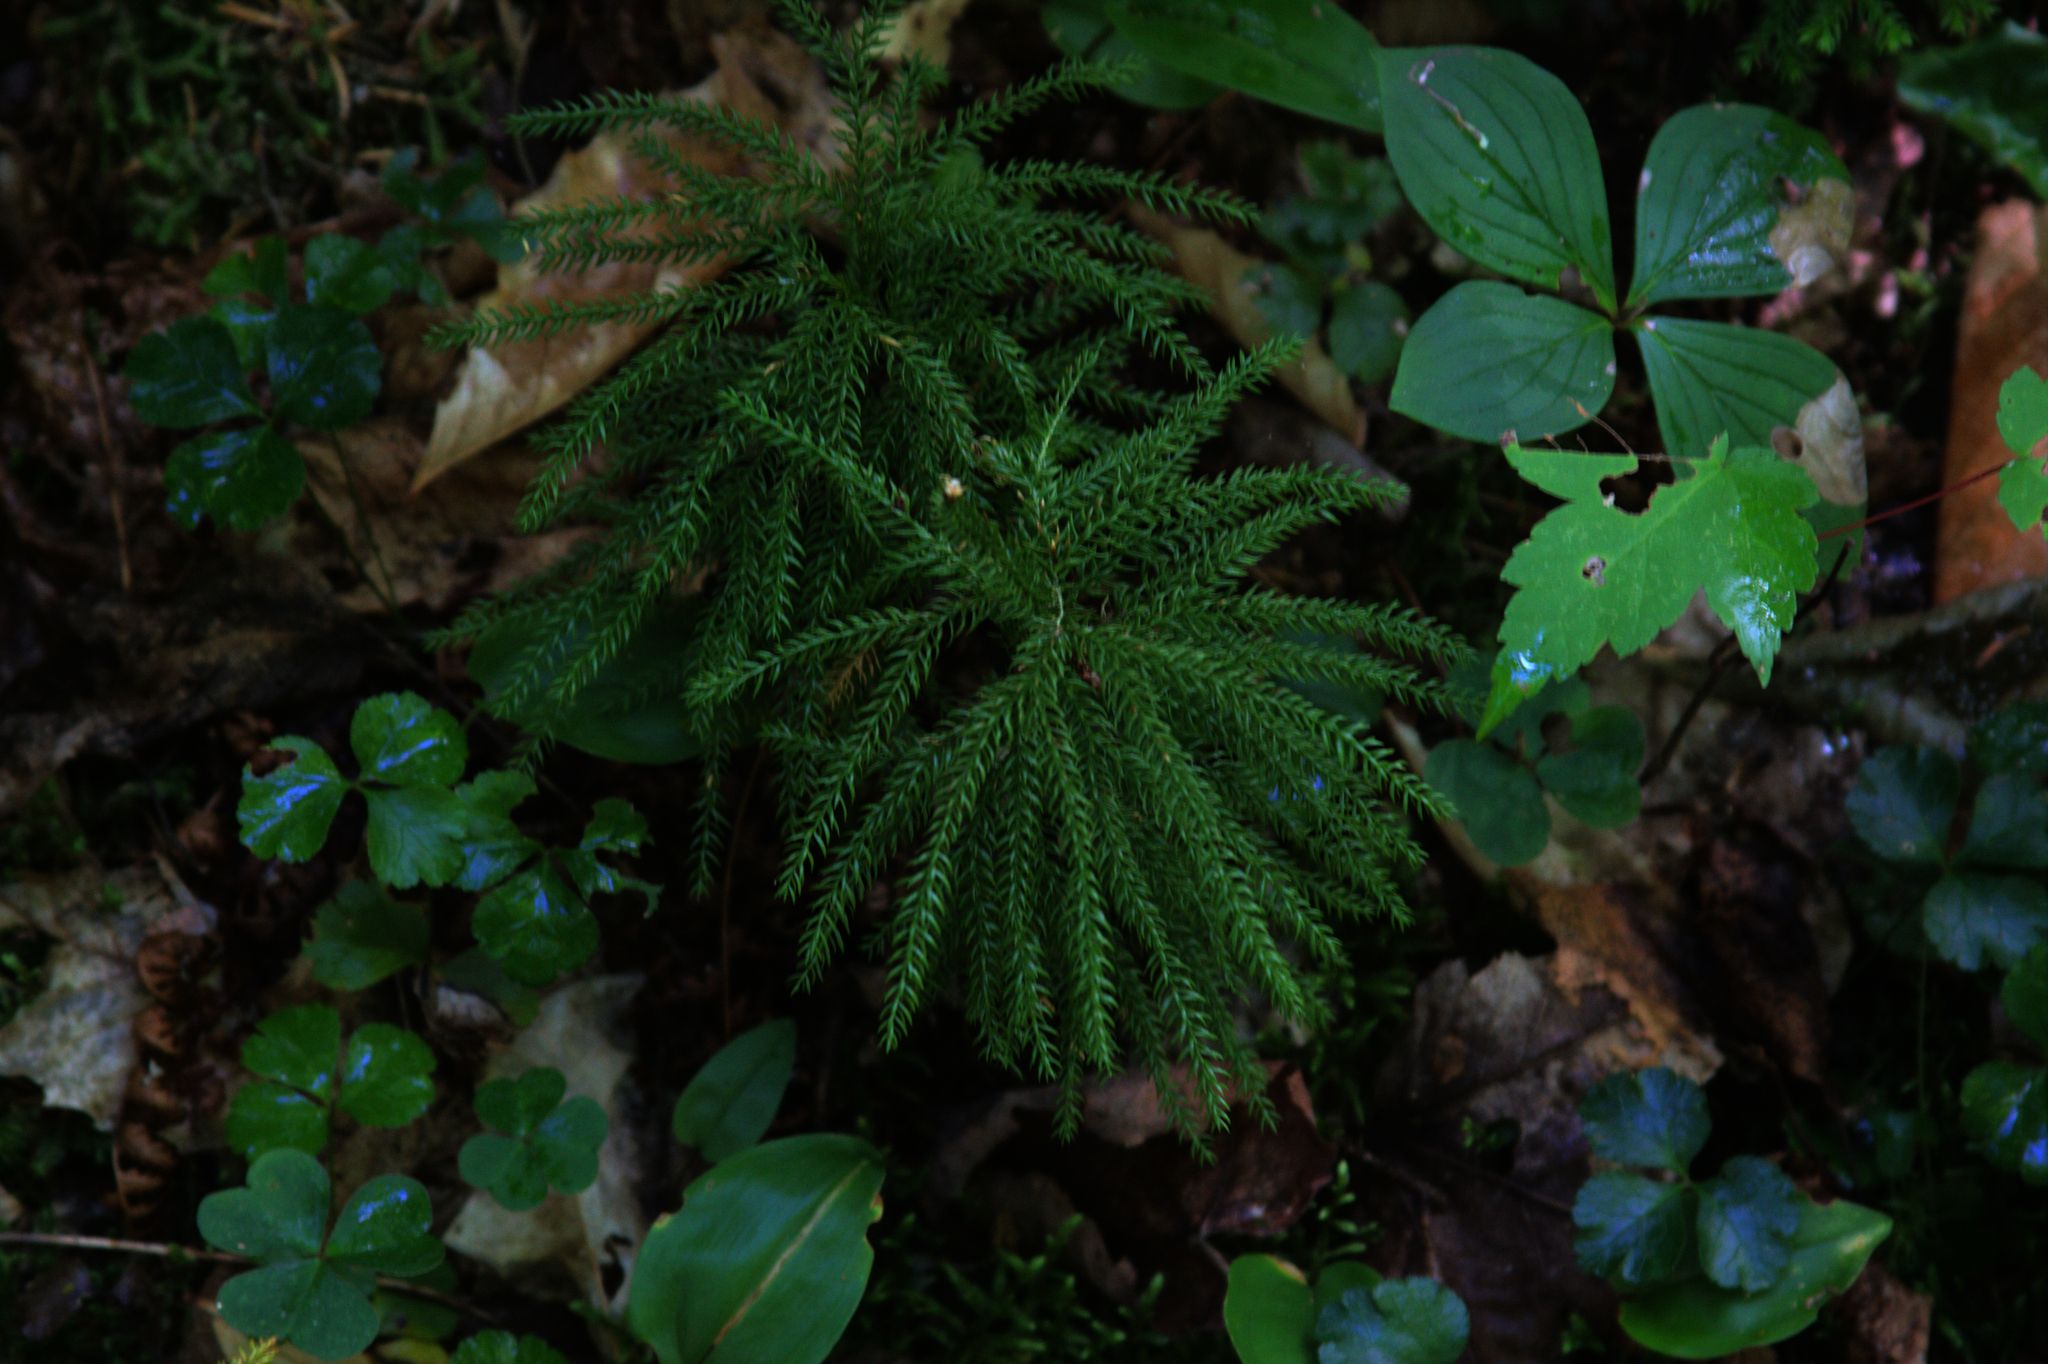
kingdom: Plantae
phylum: Tracheophyta
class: Magnoliopsida
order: Ranunculales
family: Ranunculaceae
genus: Coptis
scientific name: Coptis trifolia
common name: Canker-root
